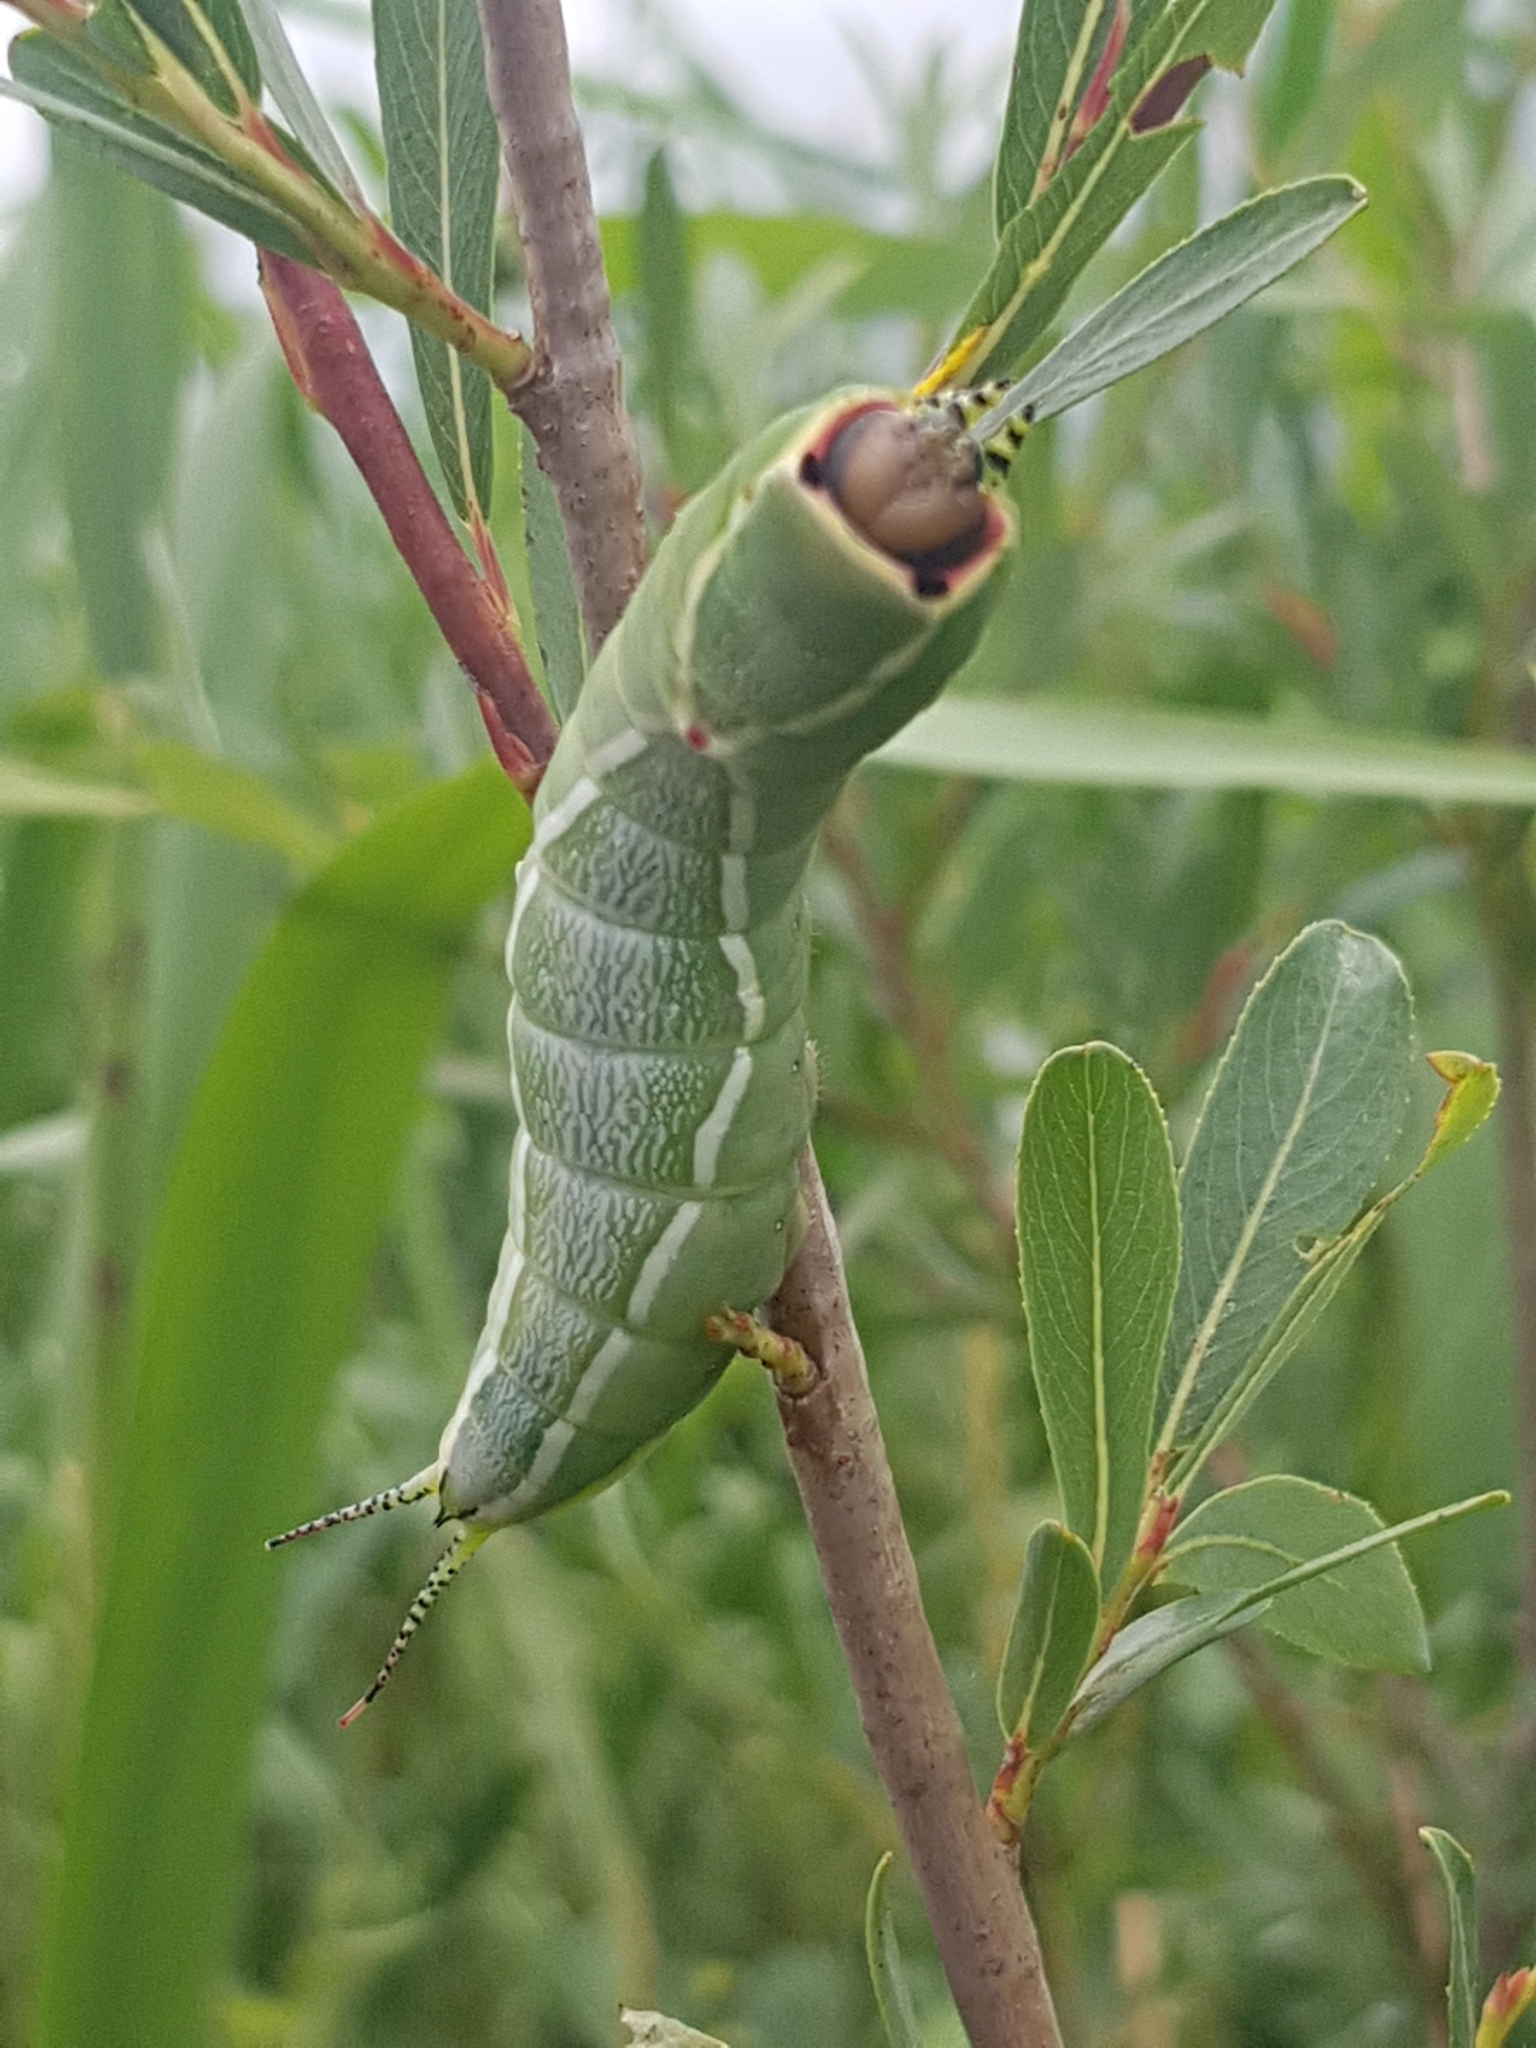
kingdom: Animalia
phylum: Arthropoda
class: Insecta
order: Lepidoptera
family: Notodontidae
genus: Cerura
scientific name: Cerura vinula
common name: Puss moth
